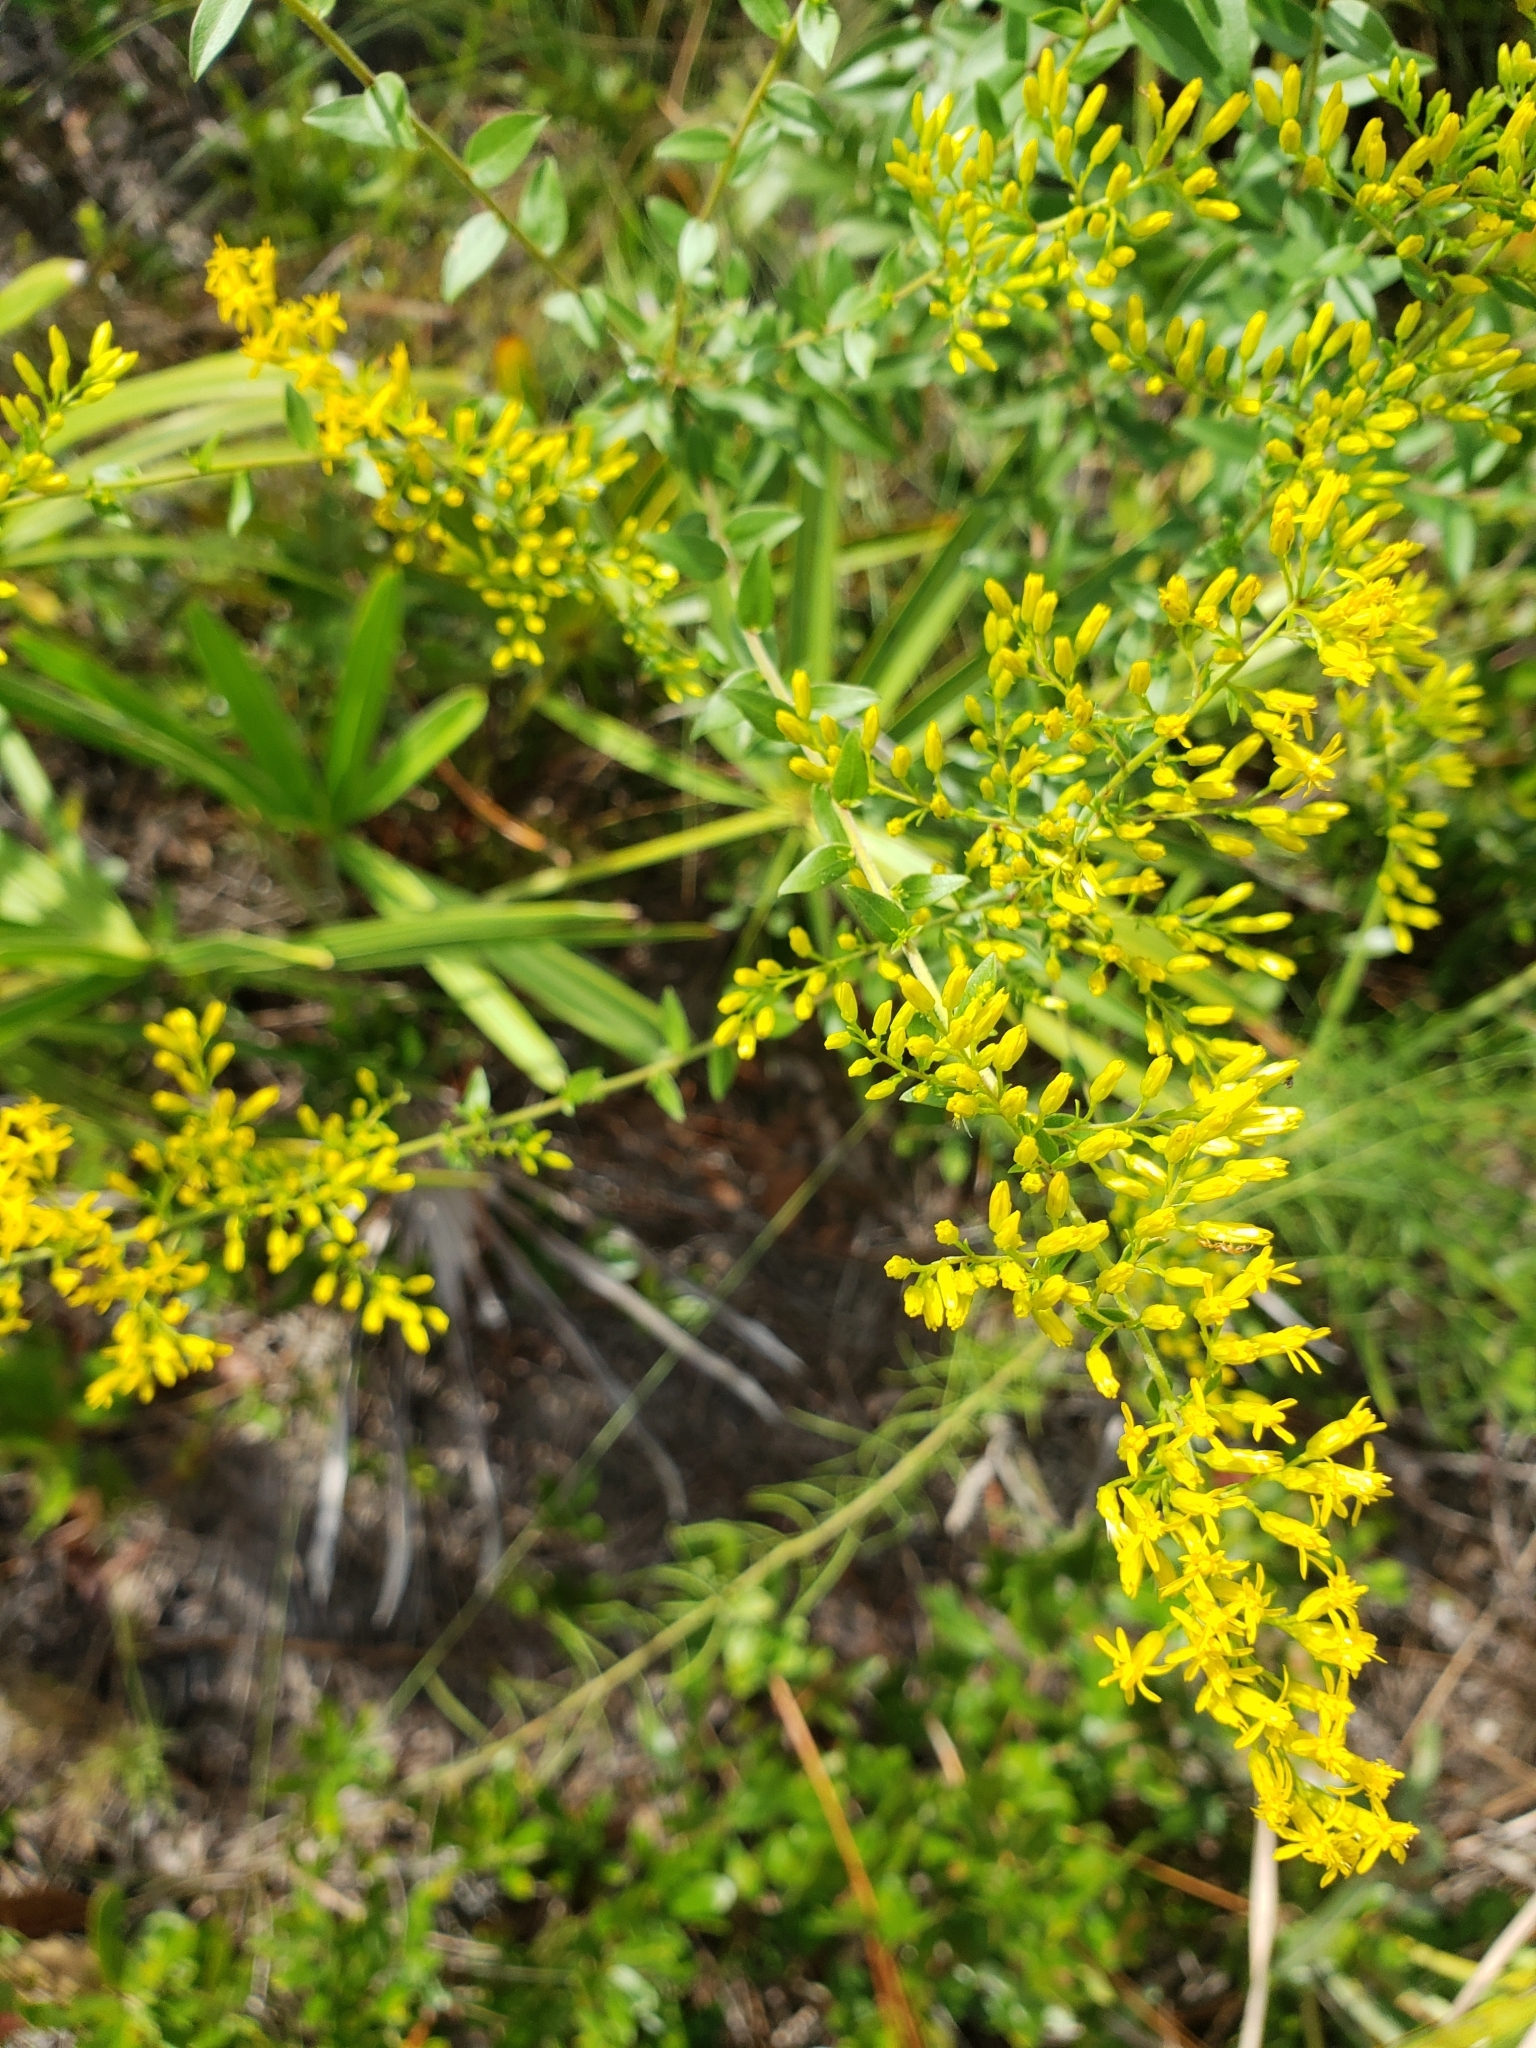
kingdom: Plantae
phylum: Tracheophyta
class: Magnoliopsida
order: Asterales
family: Asteraceae
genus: Solidago
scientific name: Solidago chapmanii
